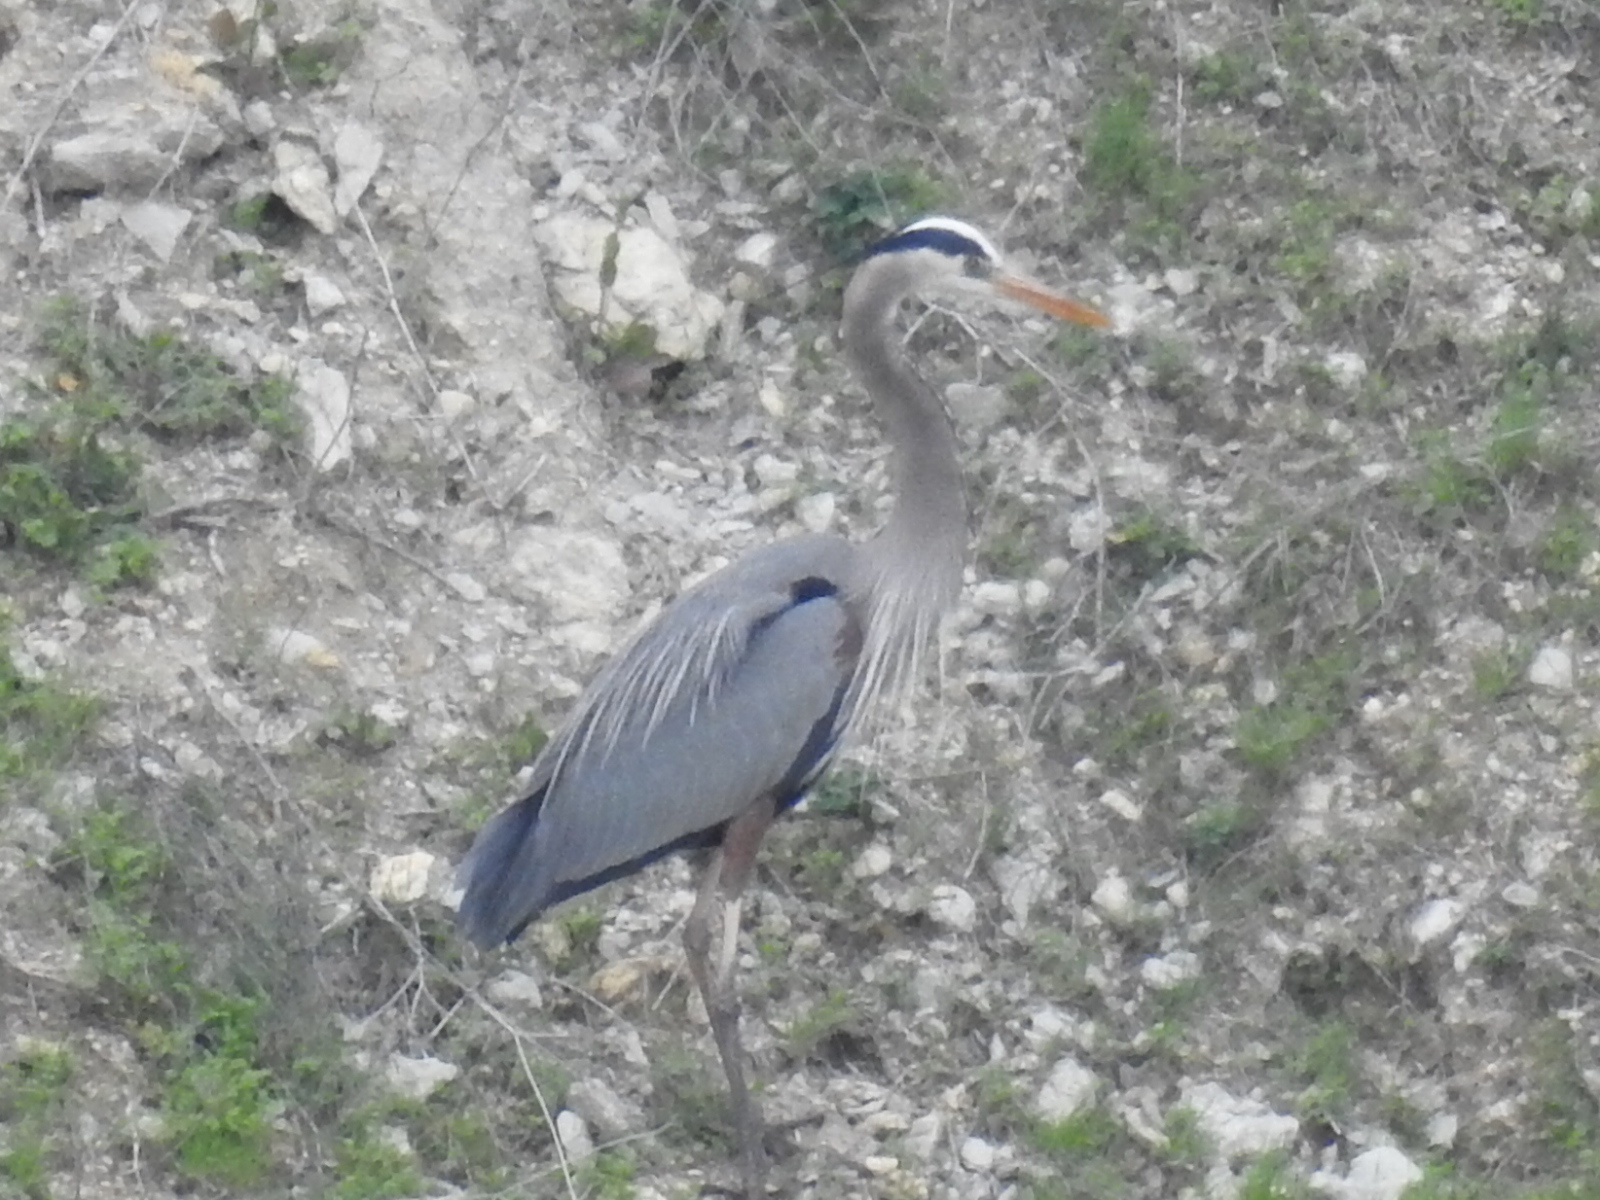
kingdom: Animalia
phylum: Chordata
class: Aves
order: Pelecaniformes
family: Ardeidae
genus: Ardea
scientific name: Ardea herodias
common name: Great blue heron
